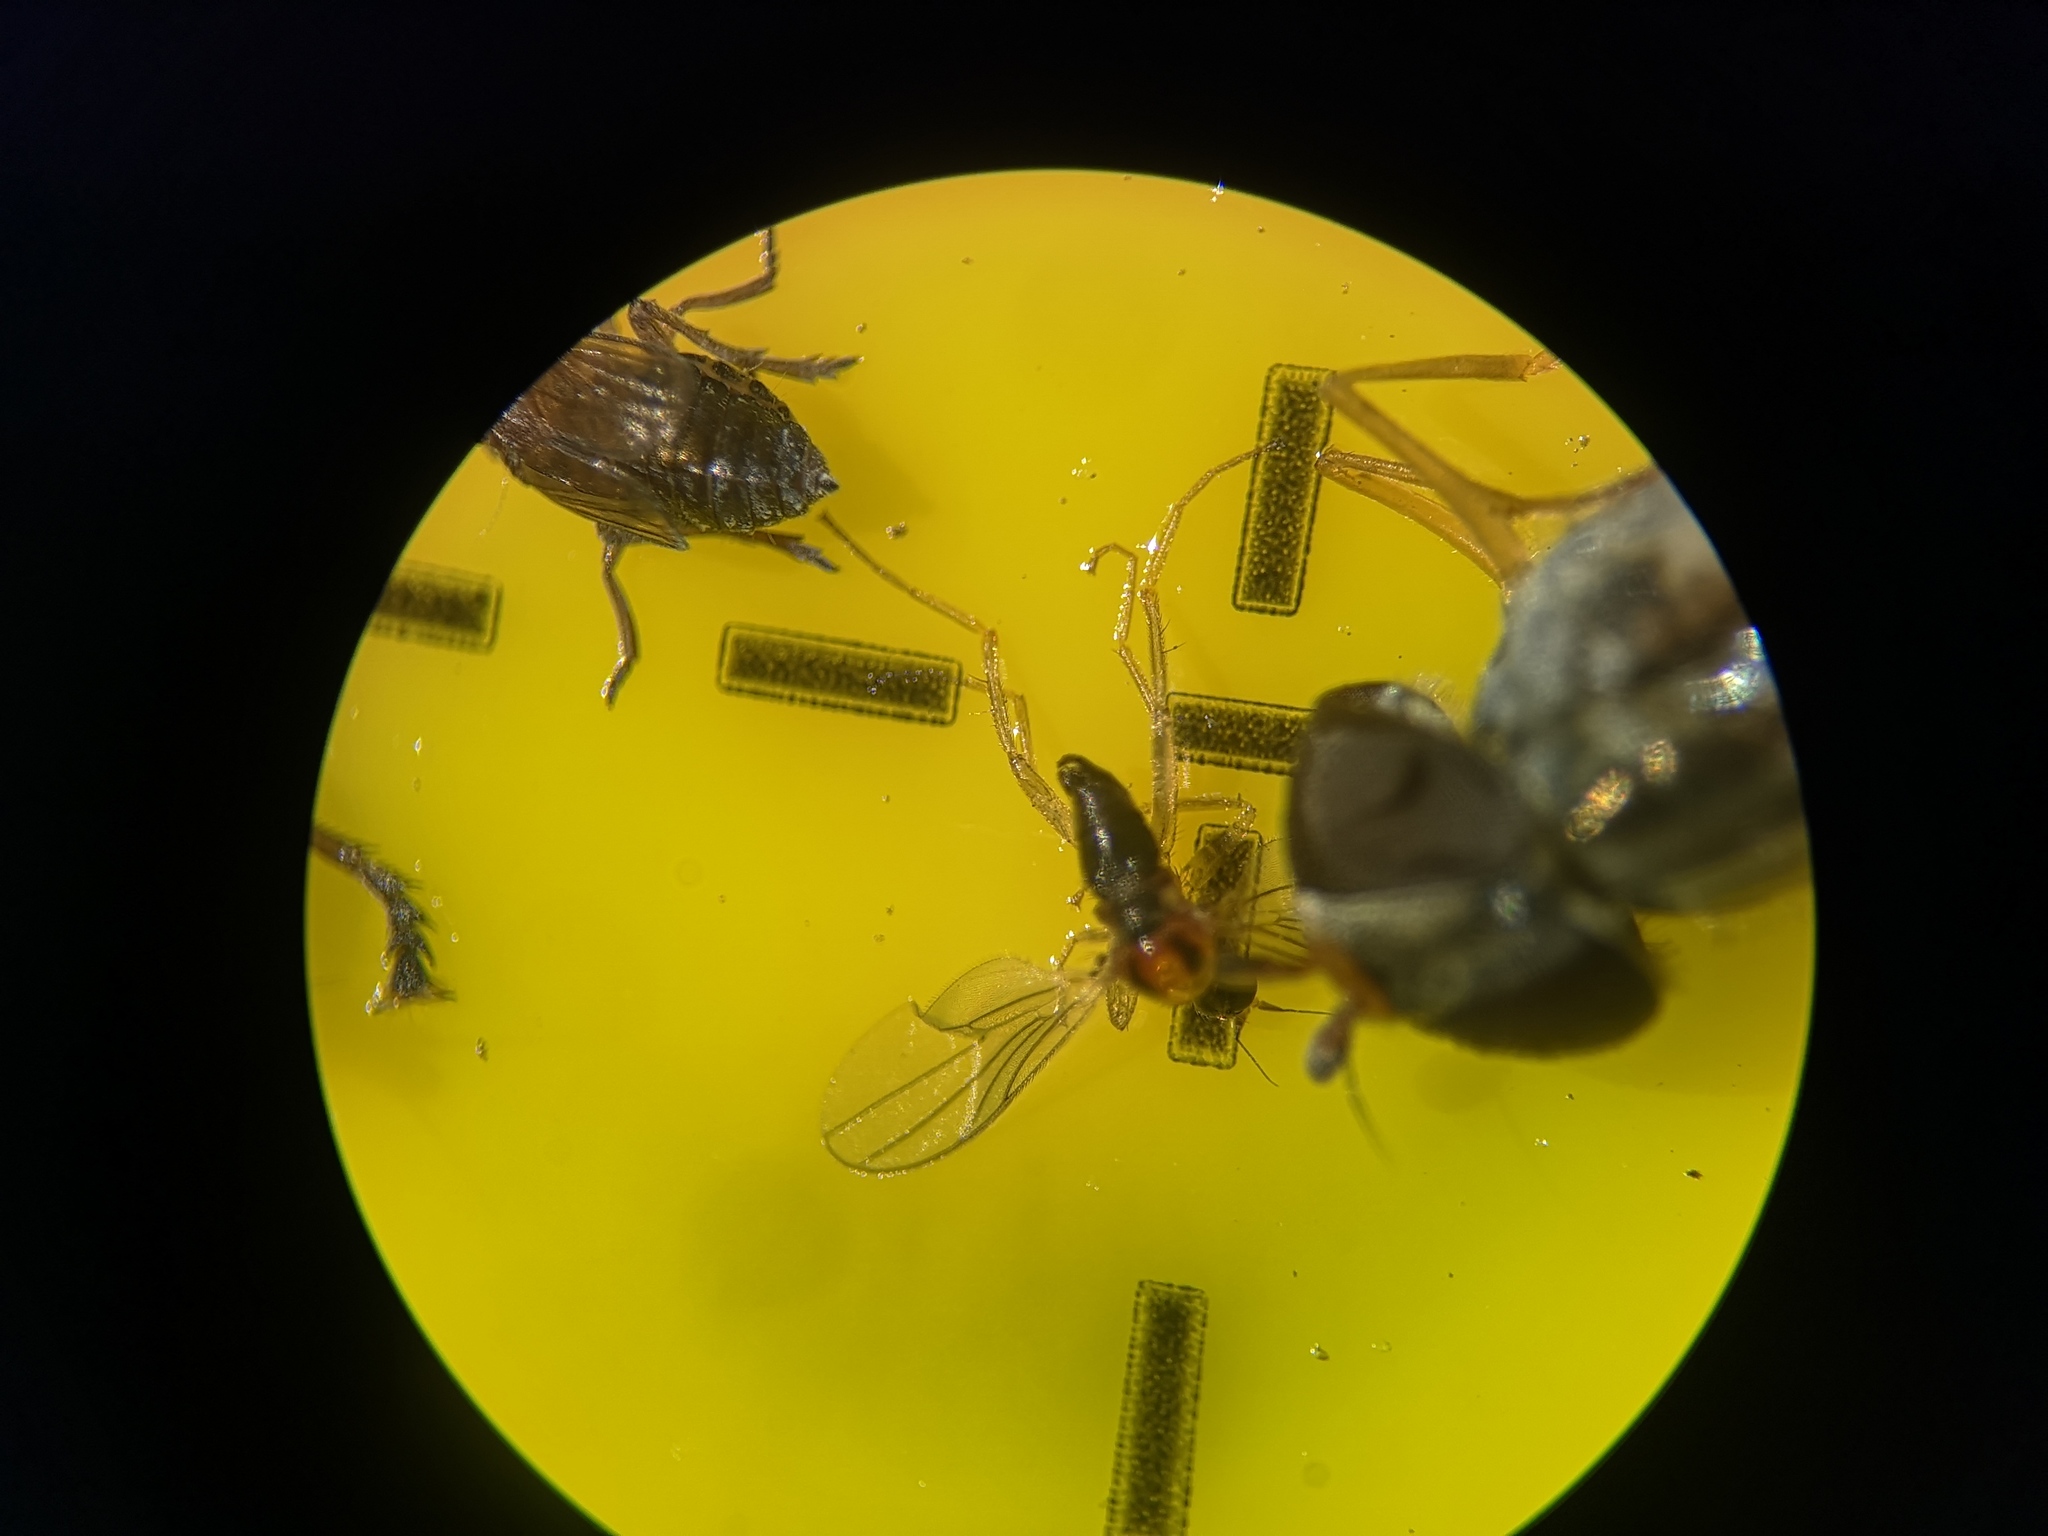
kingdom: Animalia
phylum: Arthropoda
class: Insecta
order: Diptera
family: Hybotidae
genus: Drapetis
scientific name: Drapetis ephippiata
